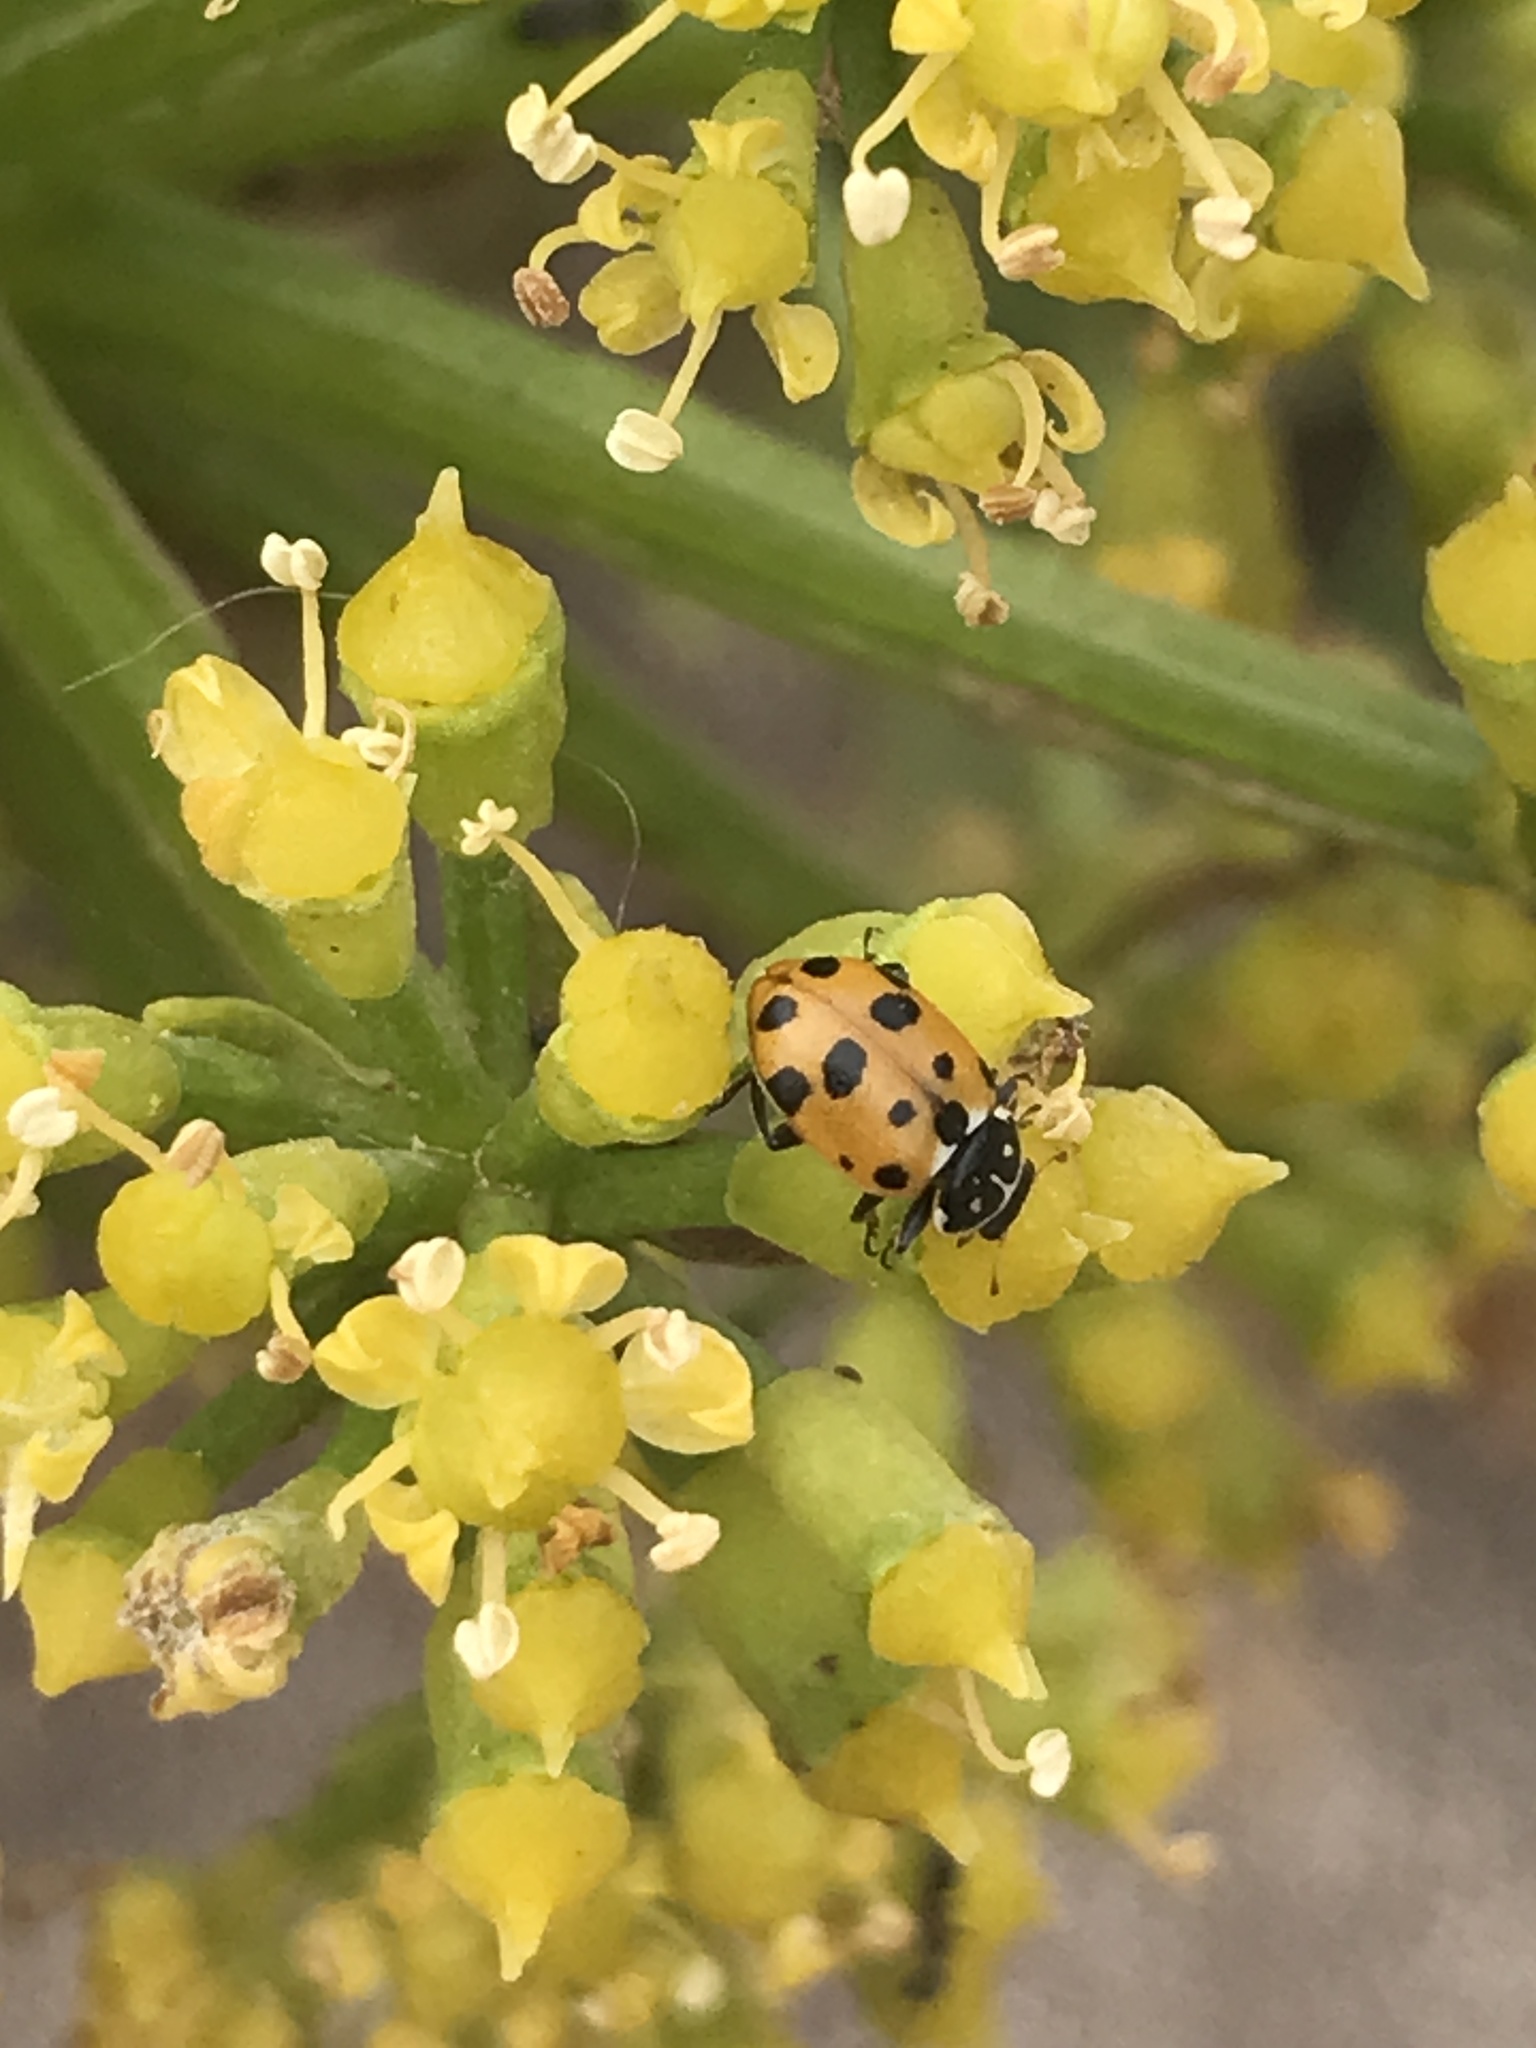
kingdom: Animalia
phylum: Arthropoda
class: Insecta
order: Coleoptera
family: Coccinellidae
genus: Hippodamia
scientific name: Hippodamia variegata
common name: Ladybird beetle
